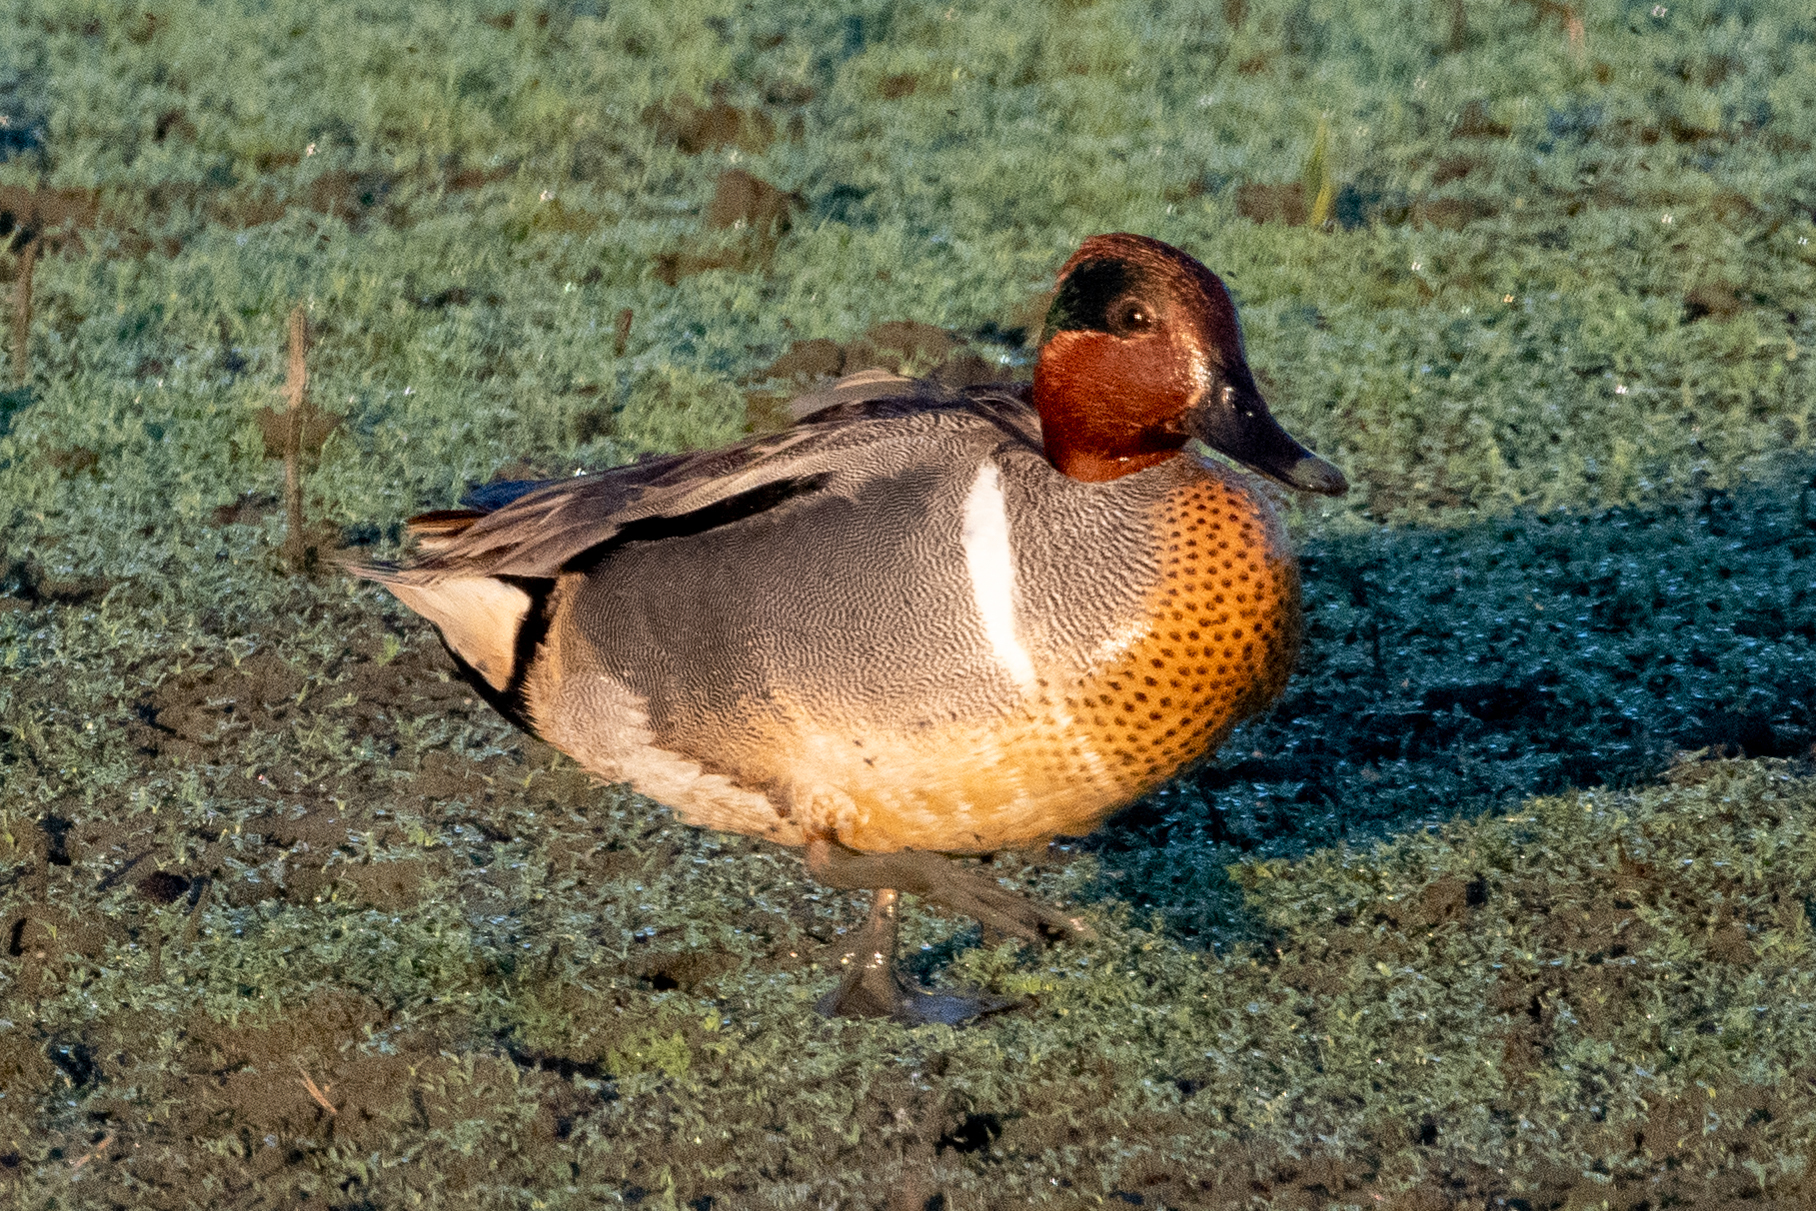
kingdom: Animalia
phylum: Chordata
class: Aves
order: Anseriformes
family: Anatidae
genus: Anas
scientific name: Anas crecca
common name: Eurasian teal
